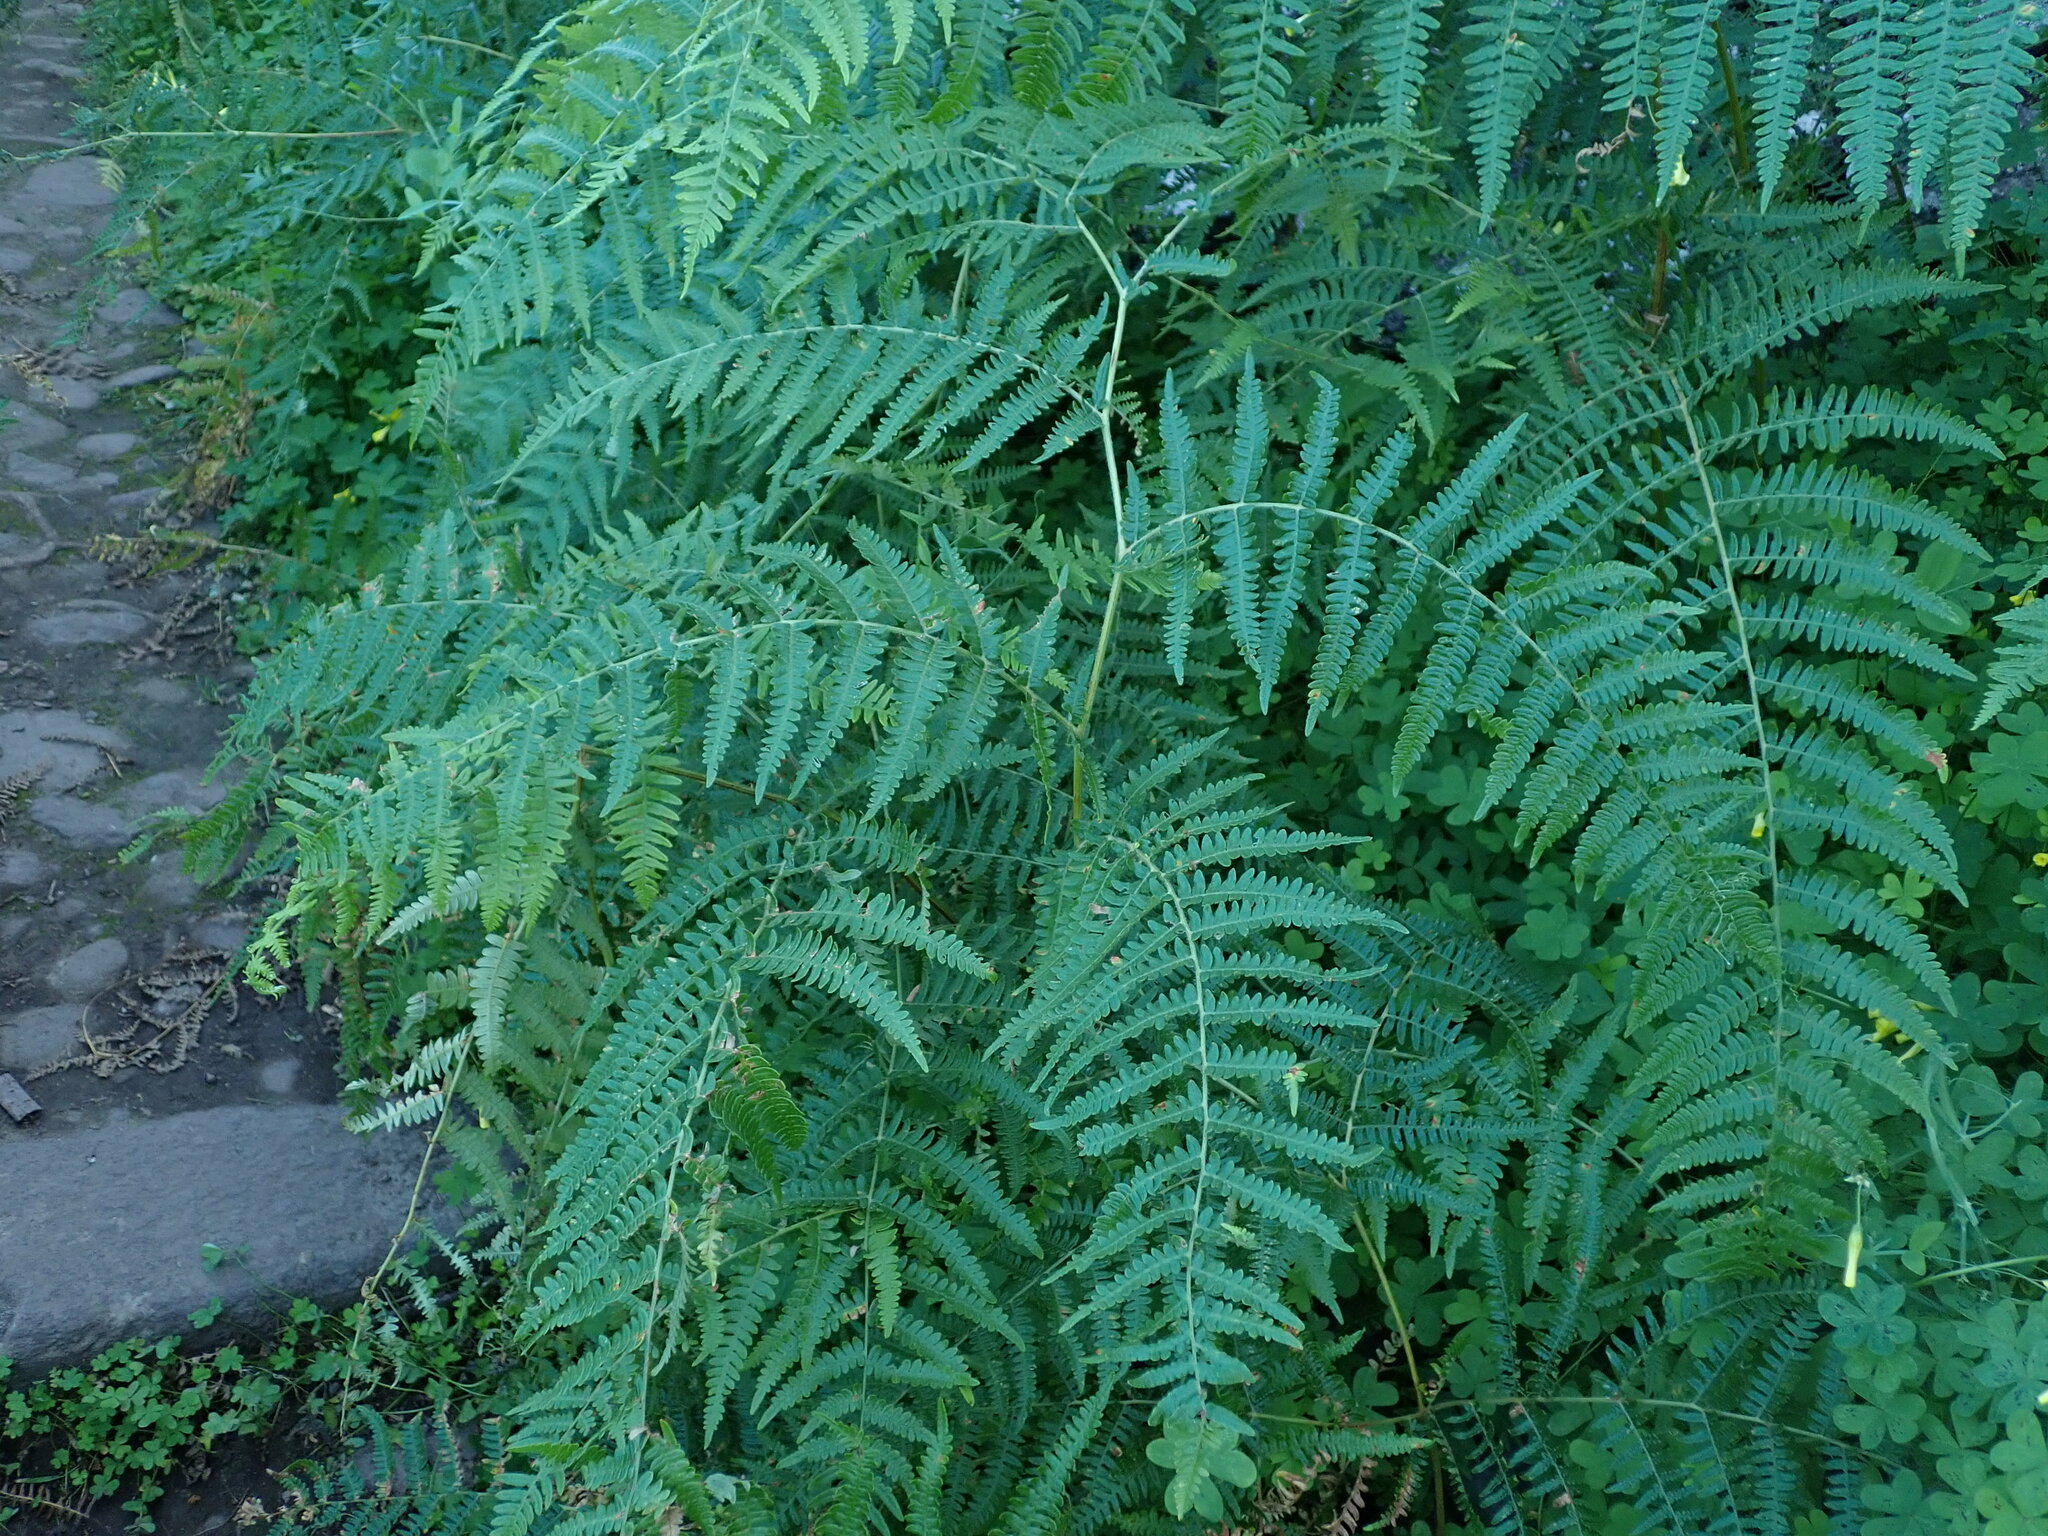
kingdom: Plantae
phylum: Tracheophyta
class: Polypodiopsida
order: Polypodiales
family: Dennstaedtiaceae
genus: Pteridium
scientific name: Pteridium aquilinum
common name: Bracken
